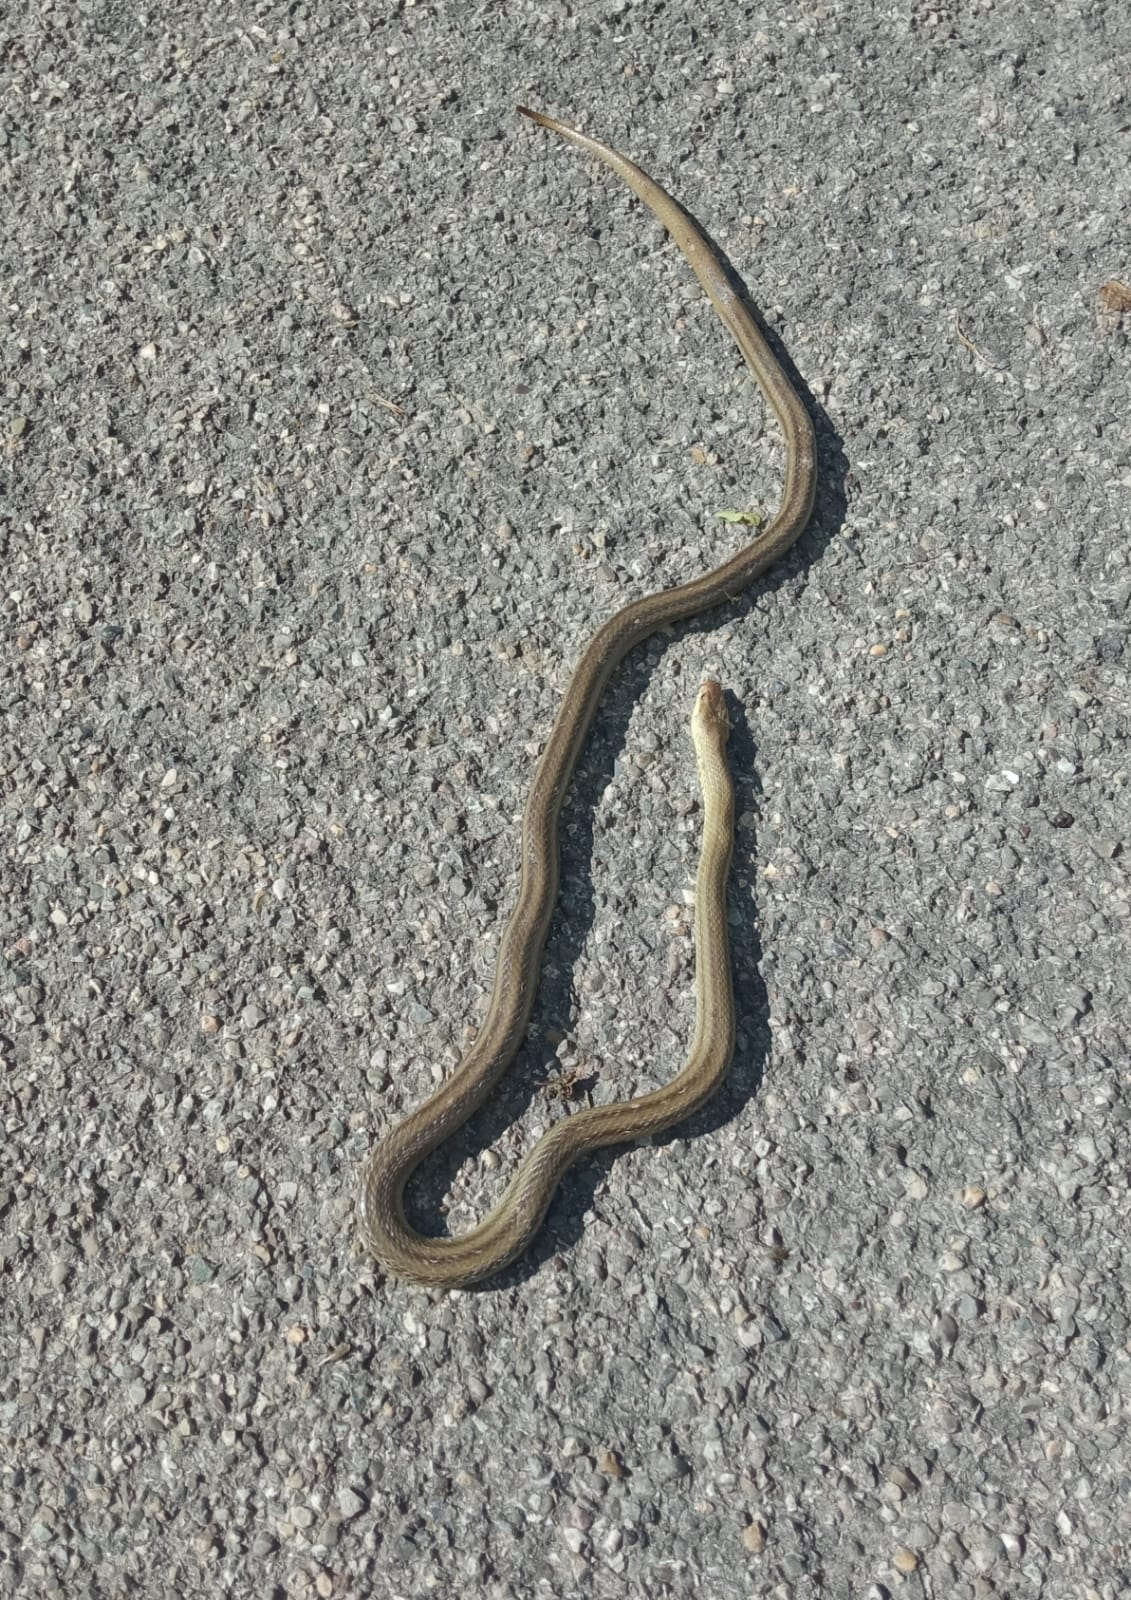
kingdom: Animalia
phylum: Chordata
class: Squamata
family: Colubridae
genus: Zamenis
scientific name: Zamenis lineatus
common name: Italian aesculapian snake
